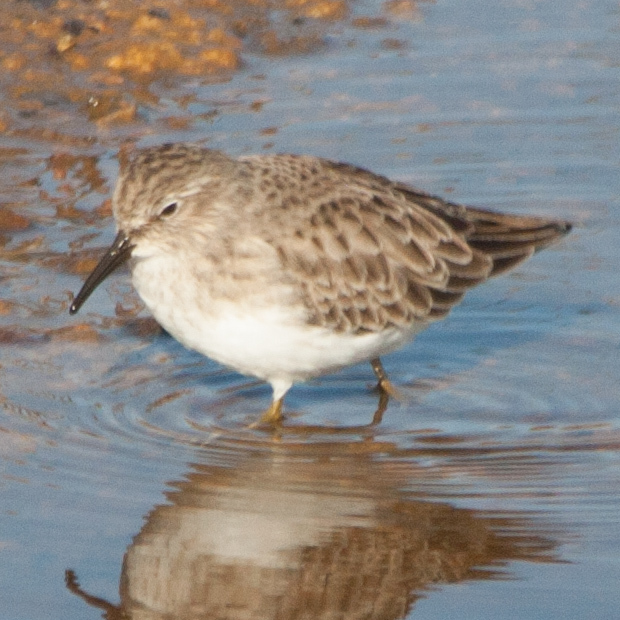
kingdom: Animalia
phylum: Chordata
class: Aves
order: Charadriiformes
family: Scolopacidae
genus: Calidris
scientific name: Calidris minutilla
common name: Least sandpiper
